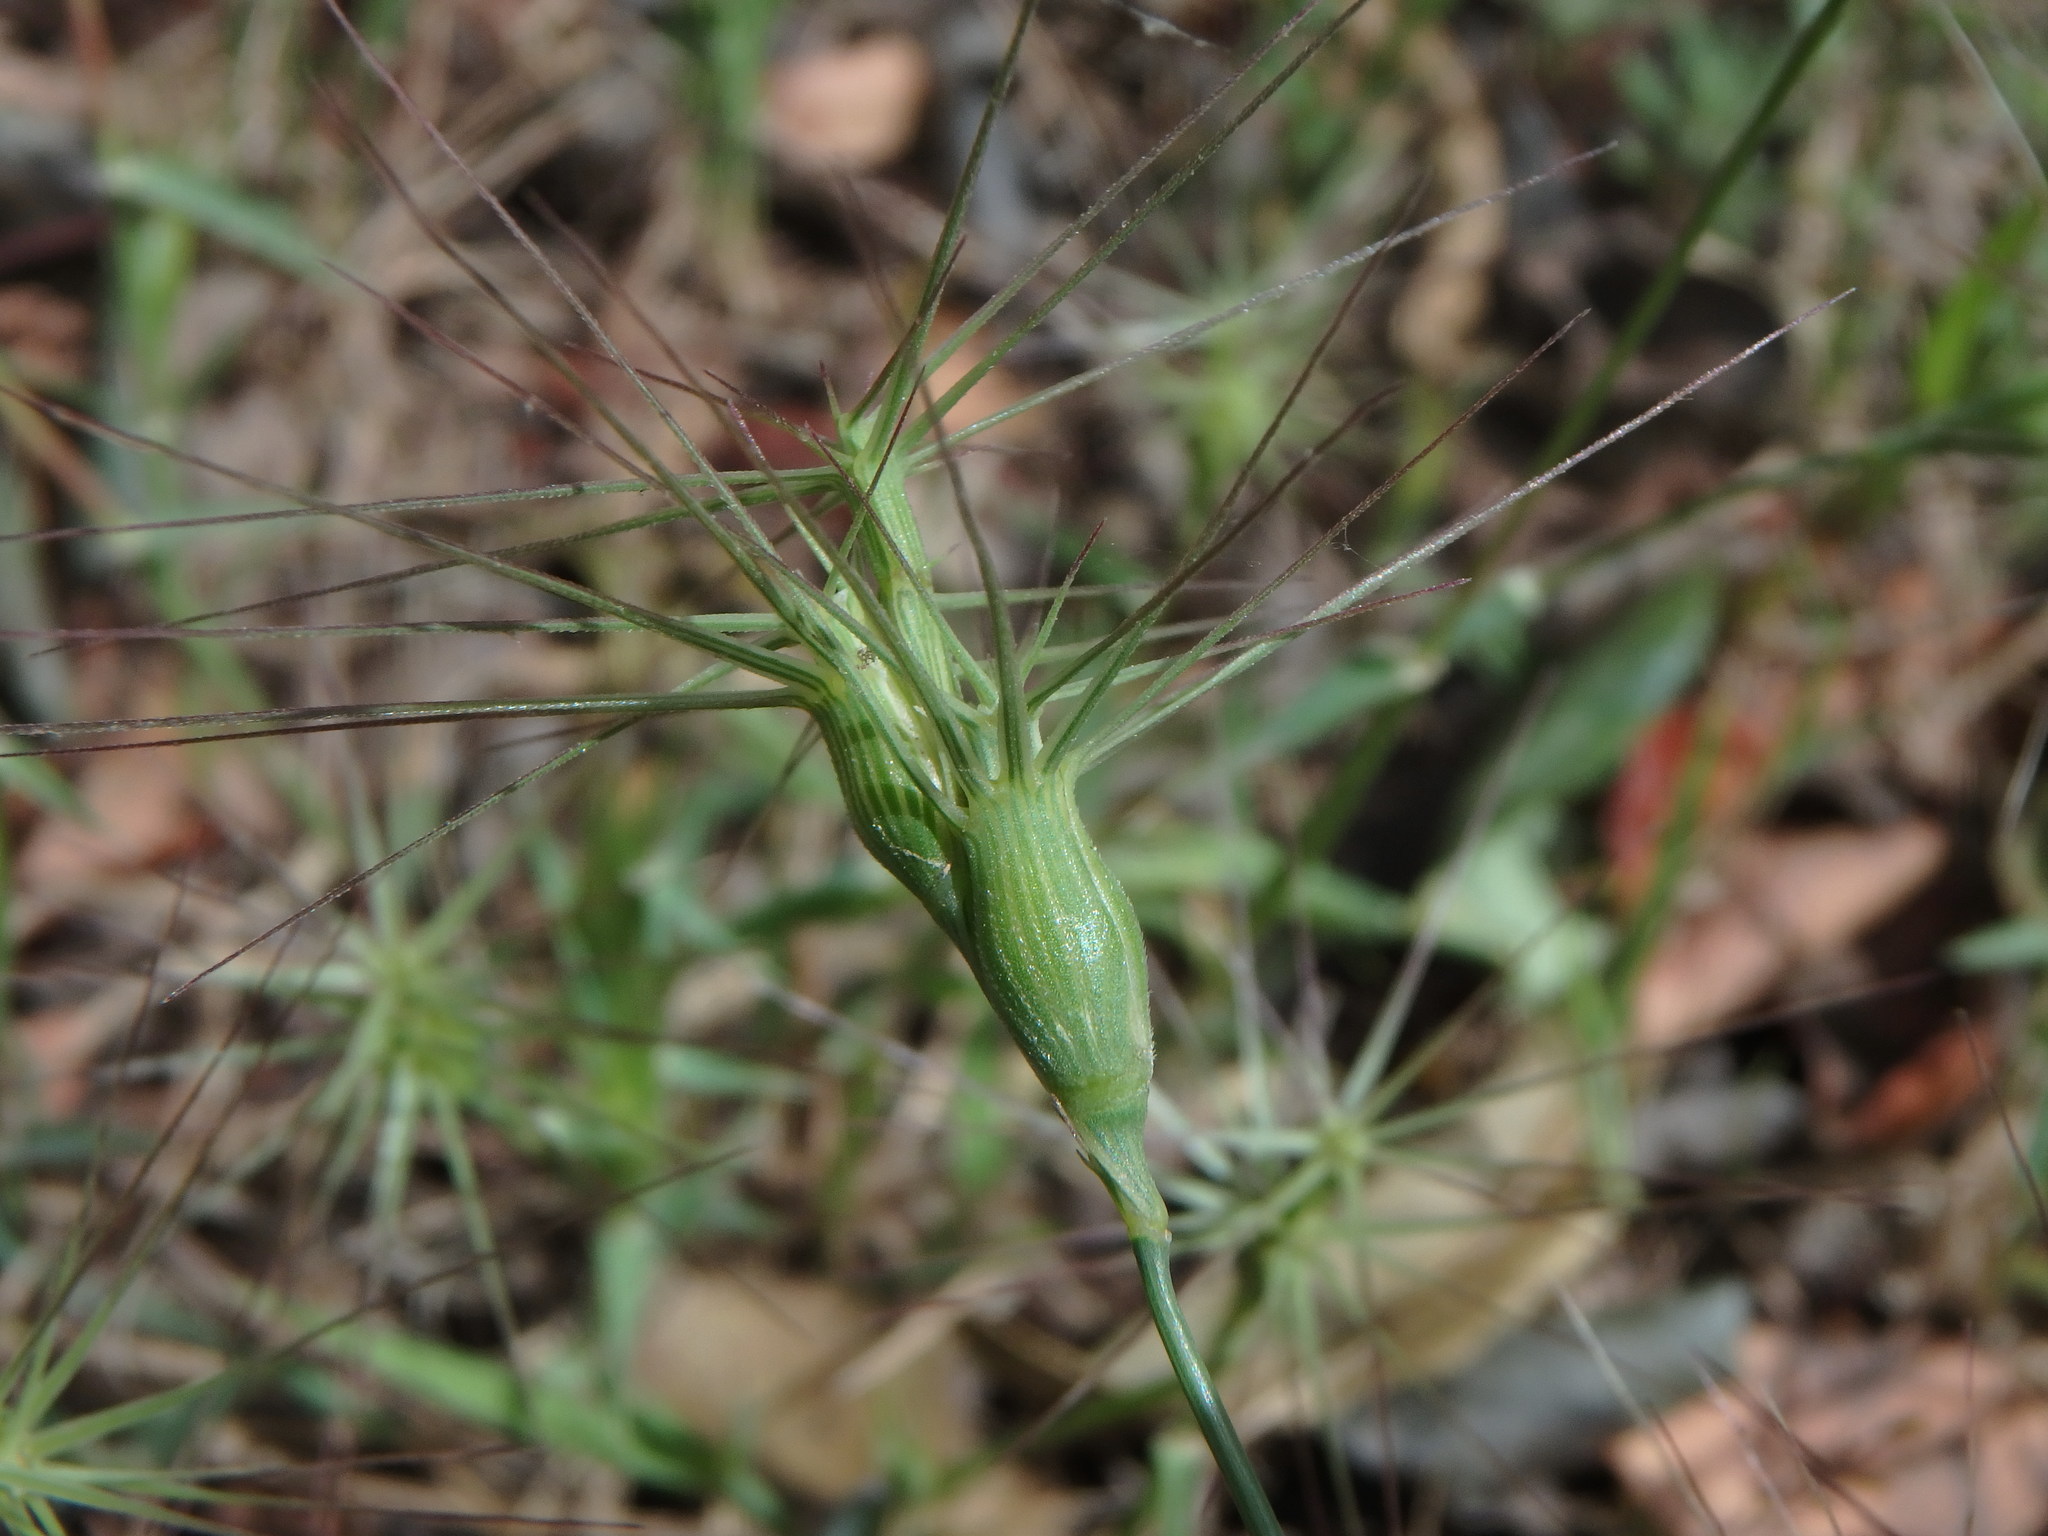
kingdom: Plantae
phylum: Tracheophyta
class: Liliopsida
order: Poales
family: Poaceae
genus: Aegilops
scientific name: Aegilops geniculata
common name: Ovate goat grass
